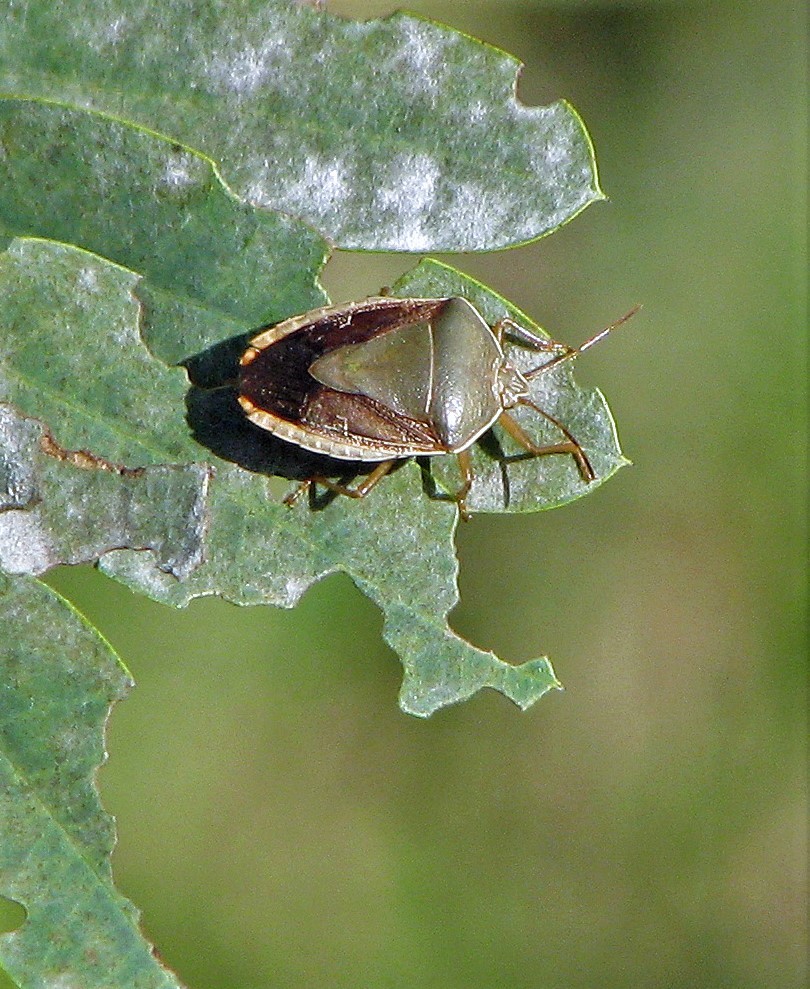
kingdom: Animalia
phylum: Arthropoda
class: Insecta
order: Hemiptera
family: Pentatomidae
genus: Edessa
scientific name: Edessa meditabunda
